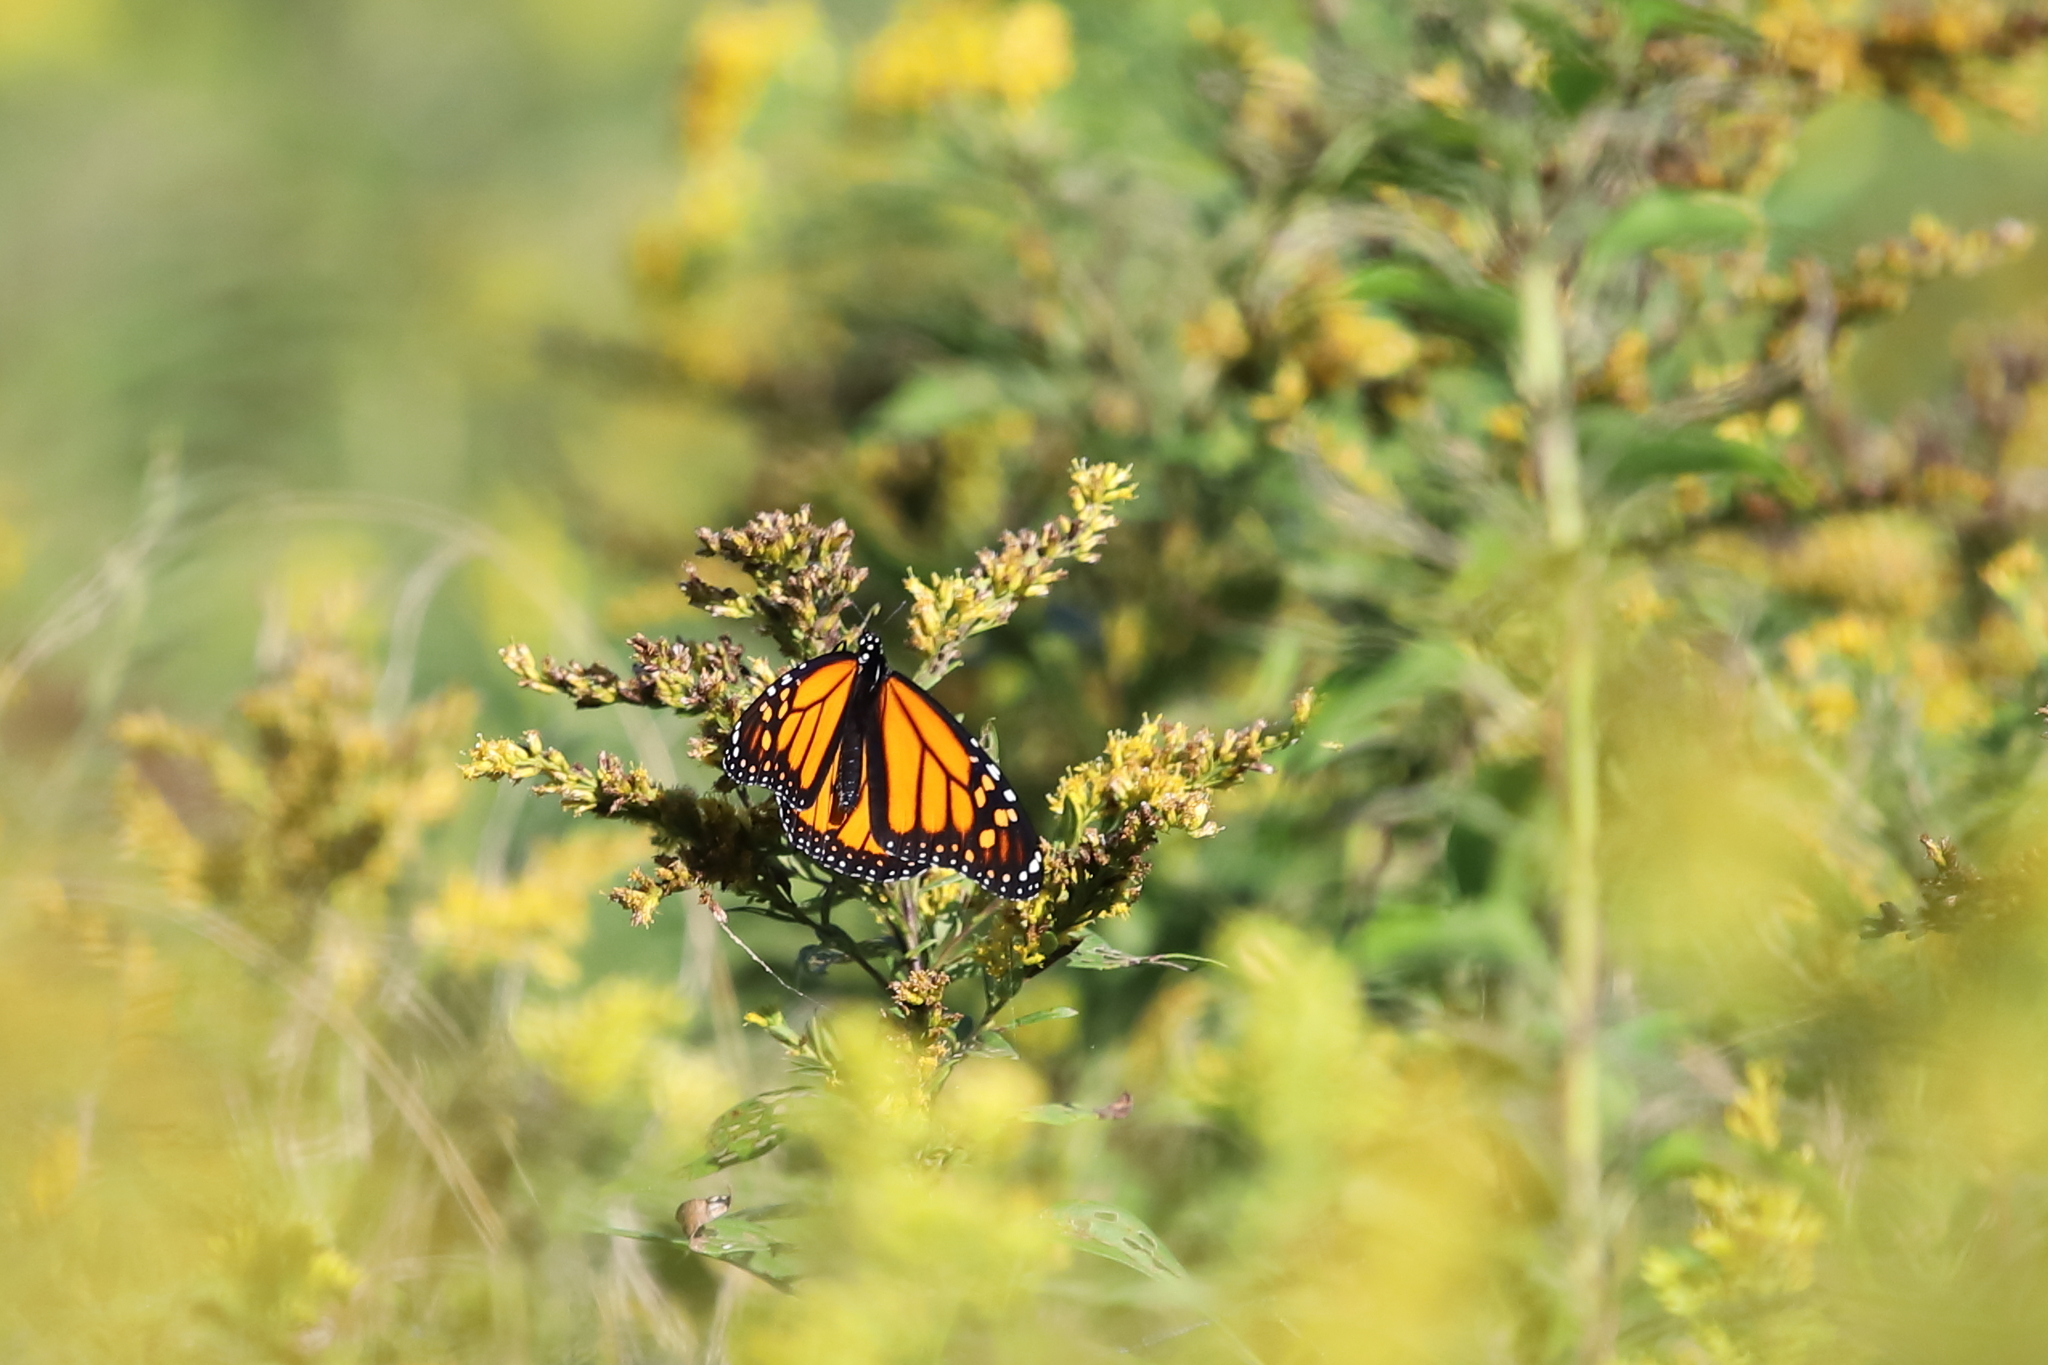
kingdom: Animalia
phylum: Arthropoda
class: Insecta
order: Lepidoptera
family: Nymphalidae
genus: Danaus
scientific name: Danaus plexippus
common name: Monarch
